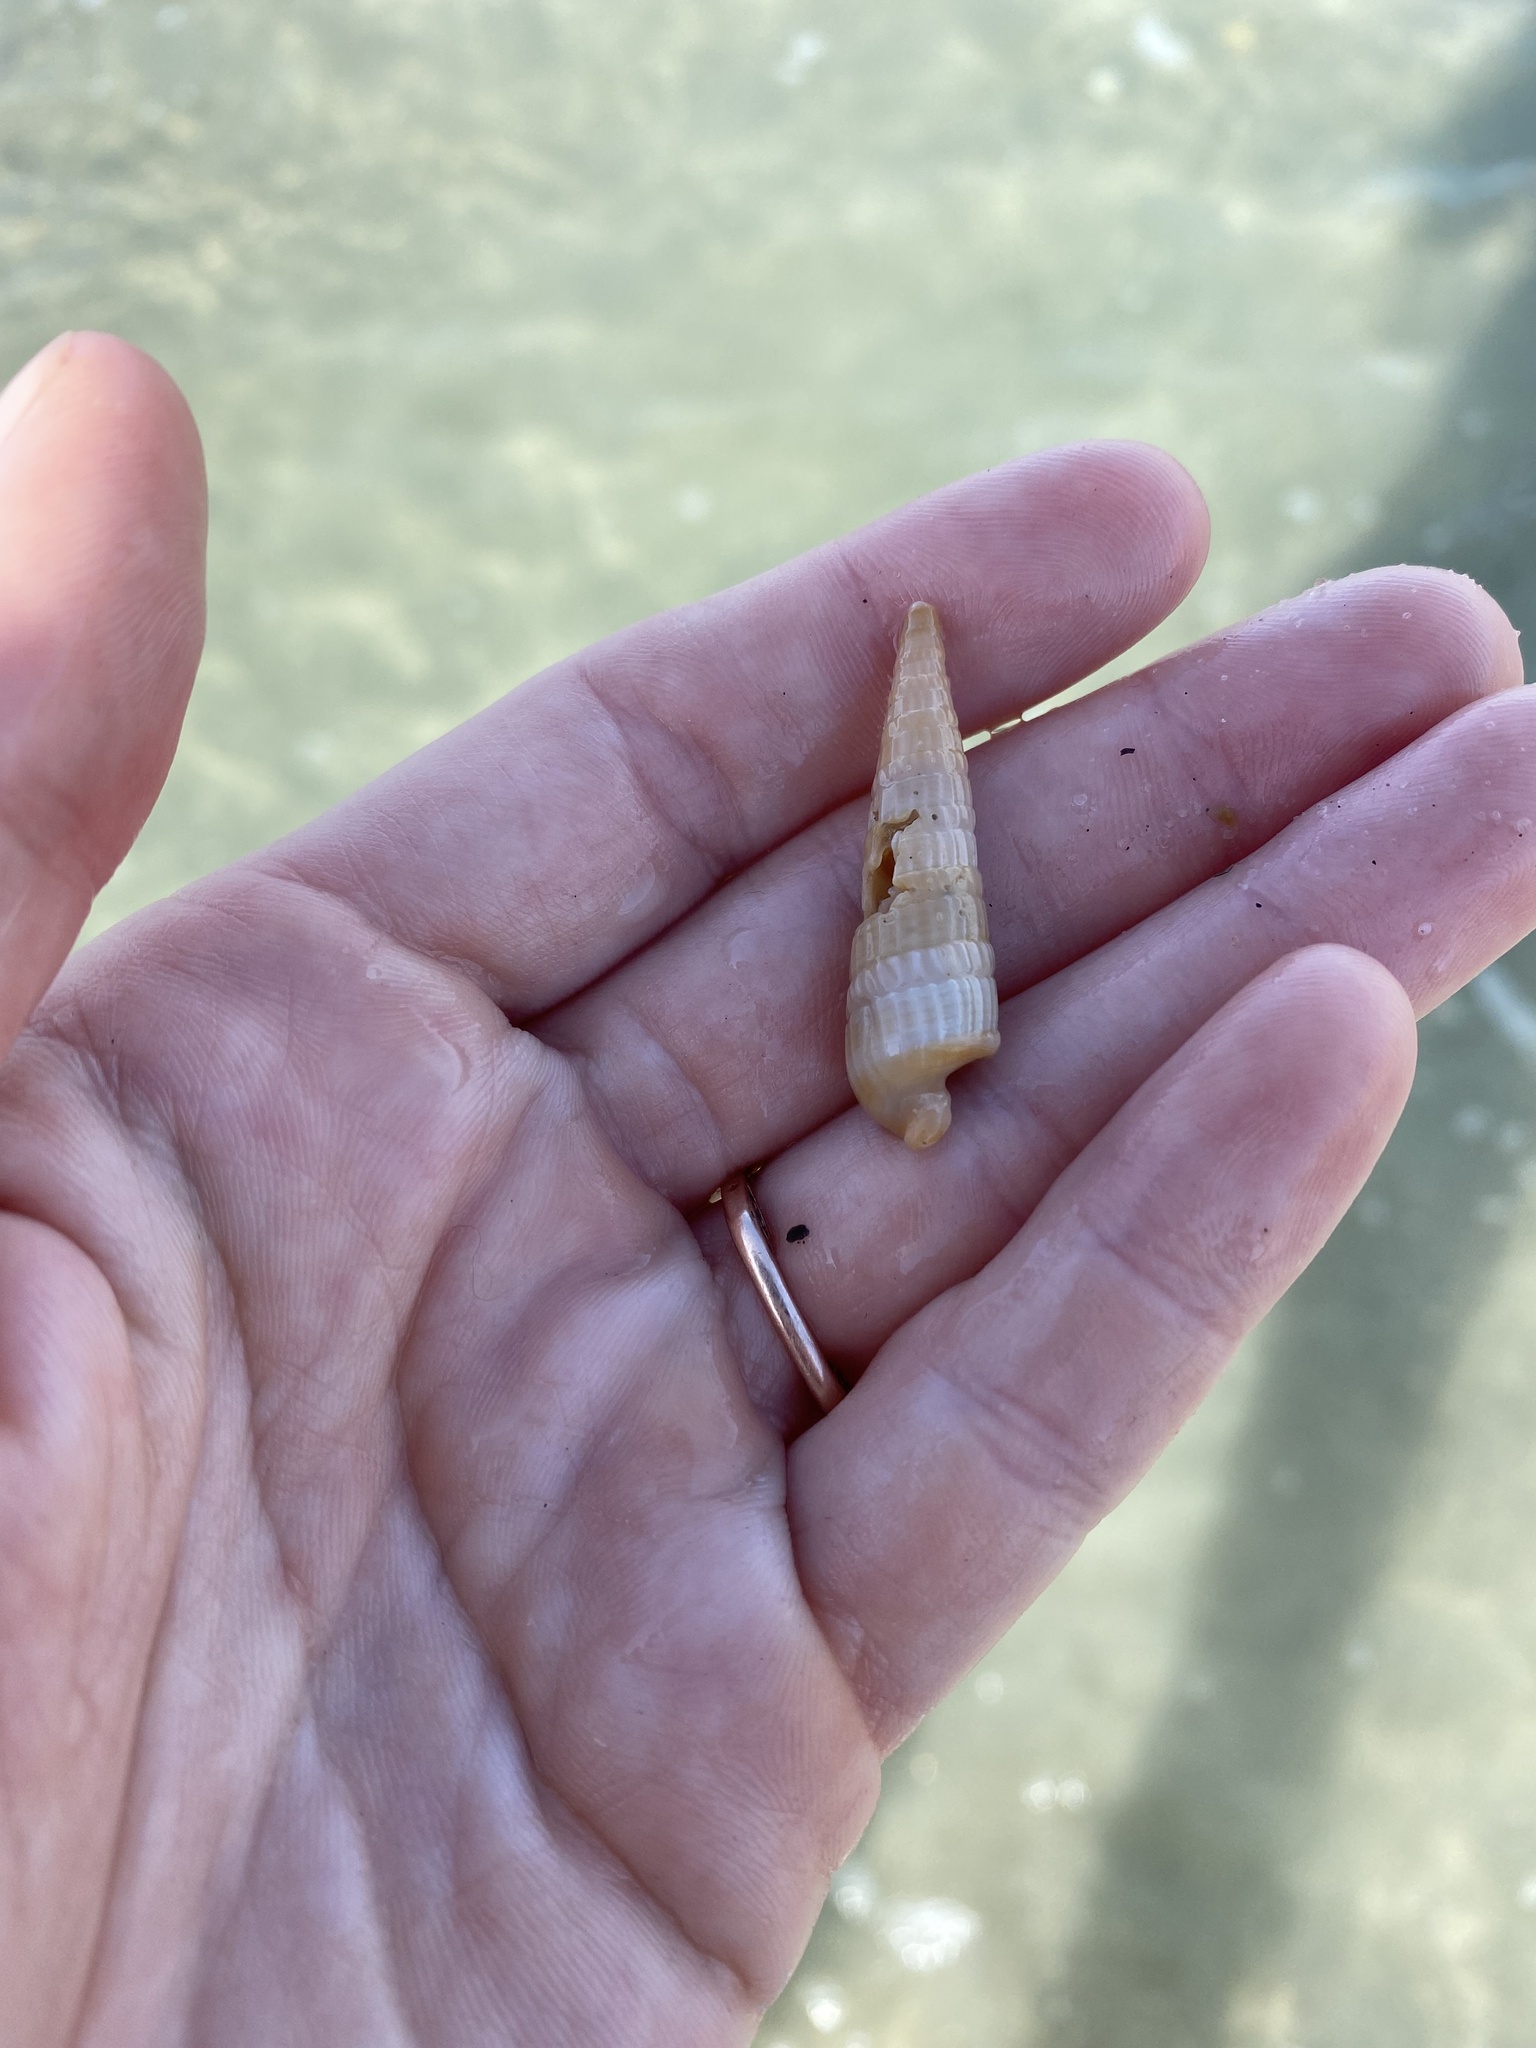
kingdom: Animalia
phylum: Mollusca
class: Gastropoda
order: Neogastropoda
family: Terebridae
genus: Neoterebra
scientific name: Neoterebra dislocata
